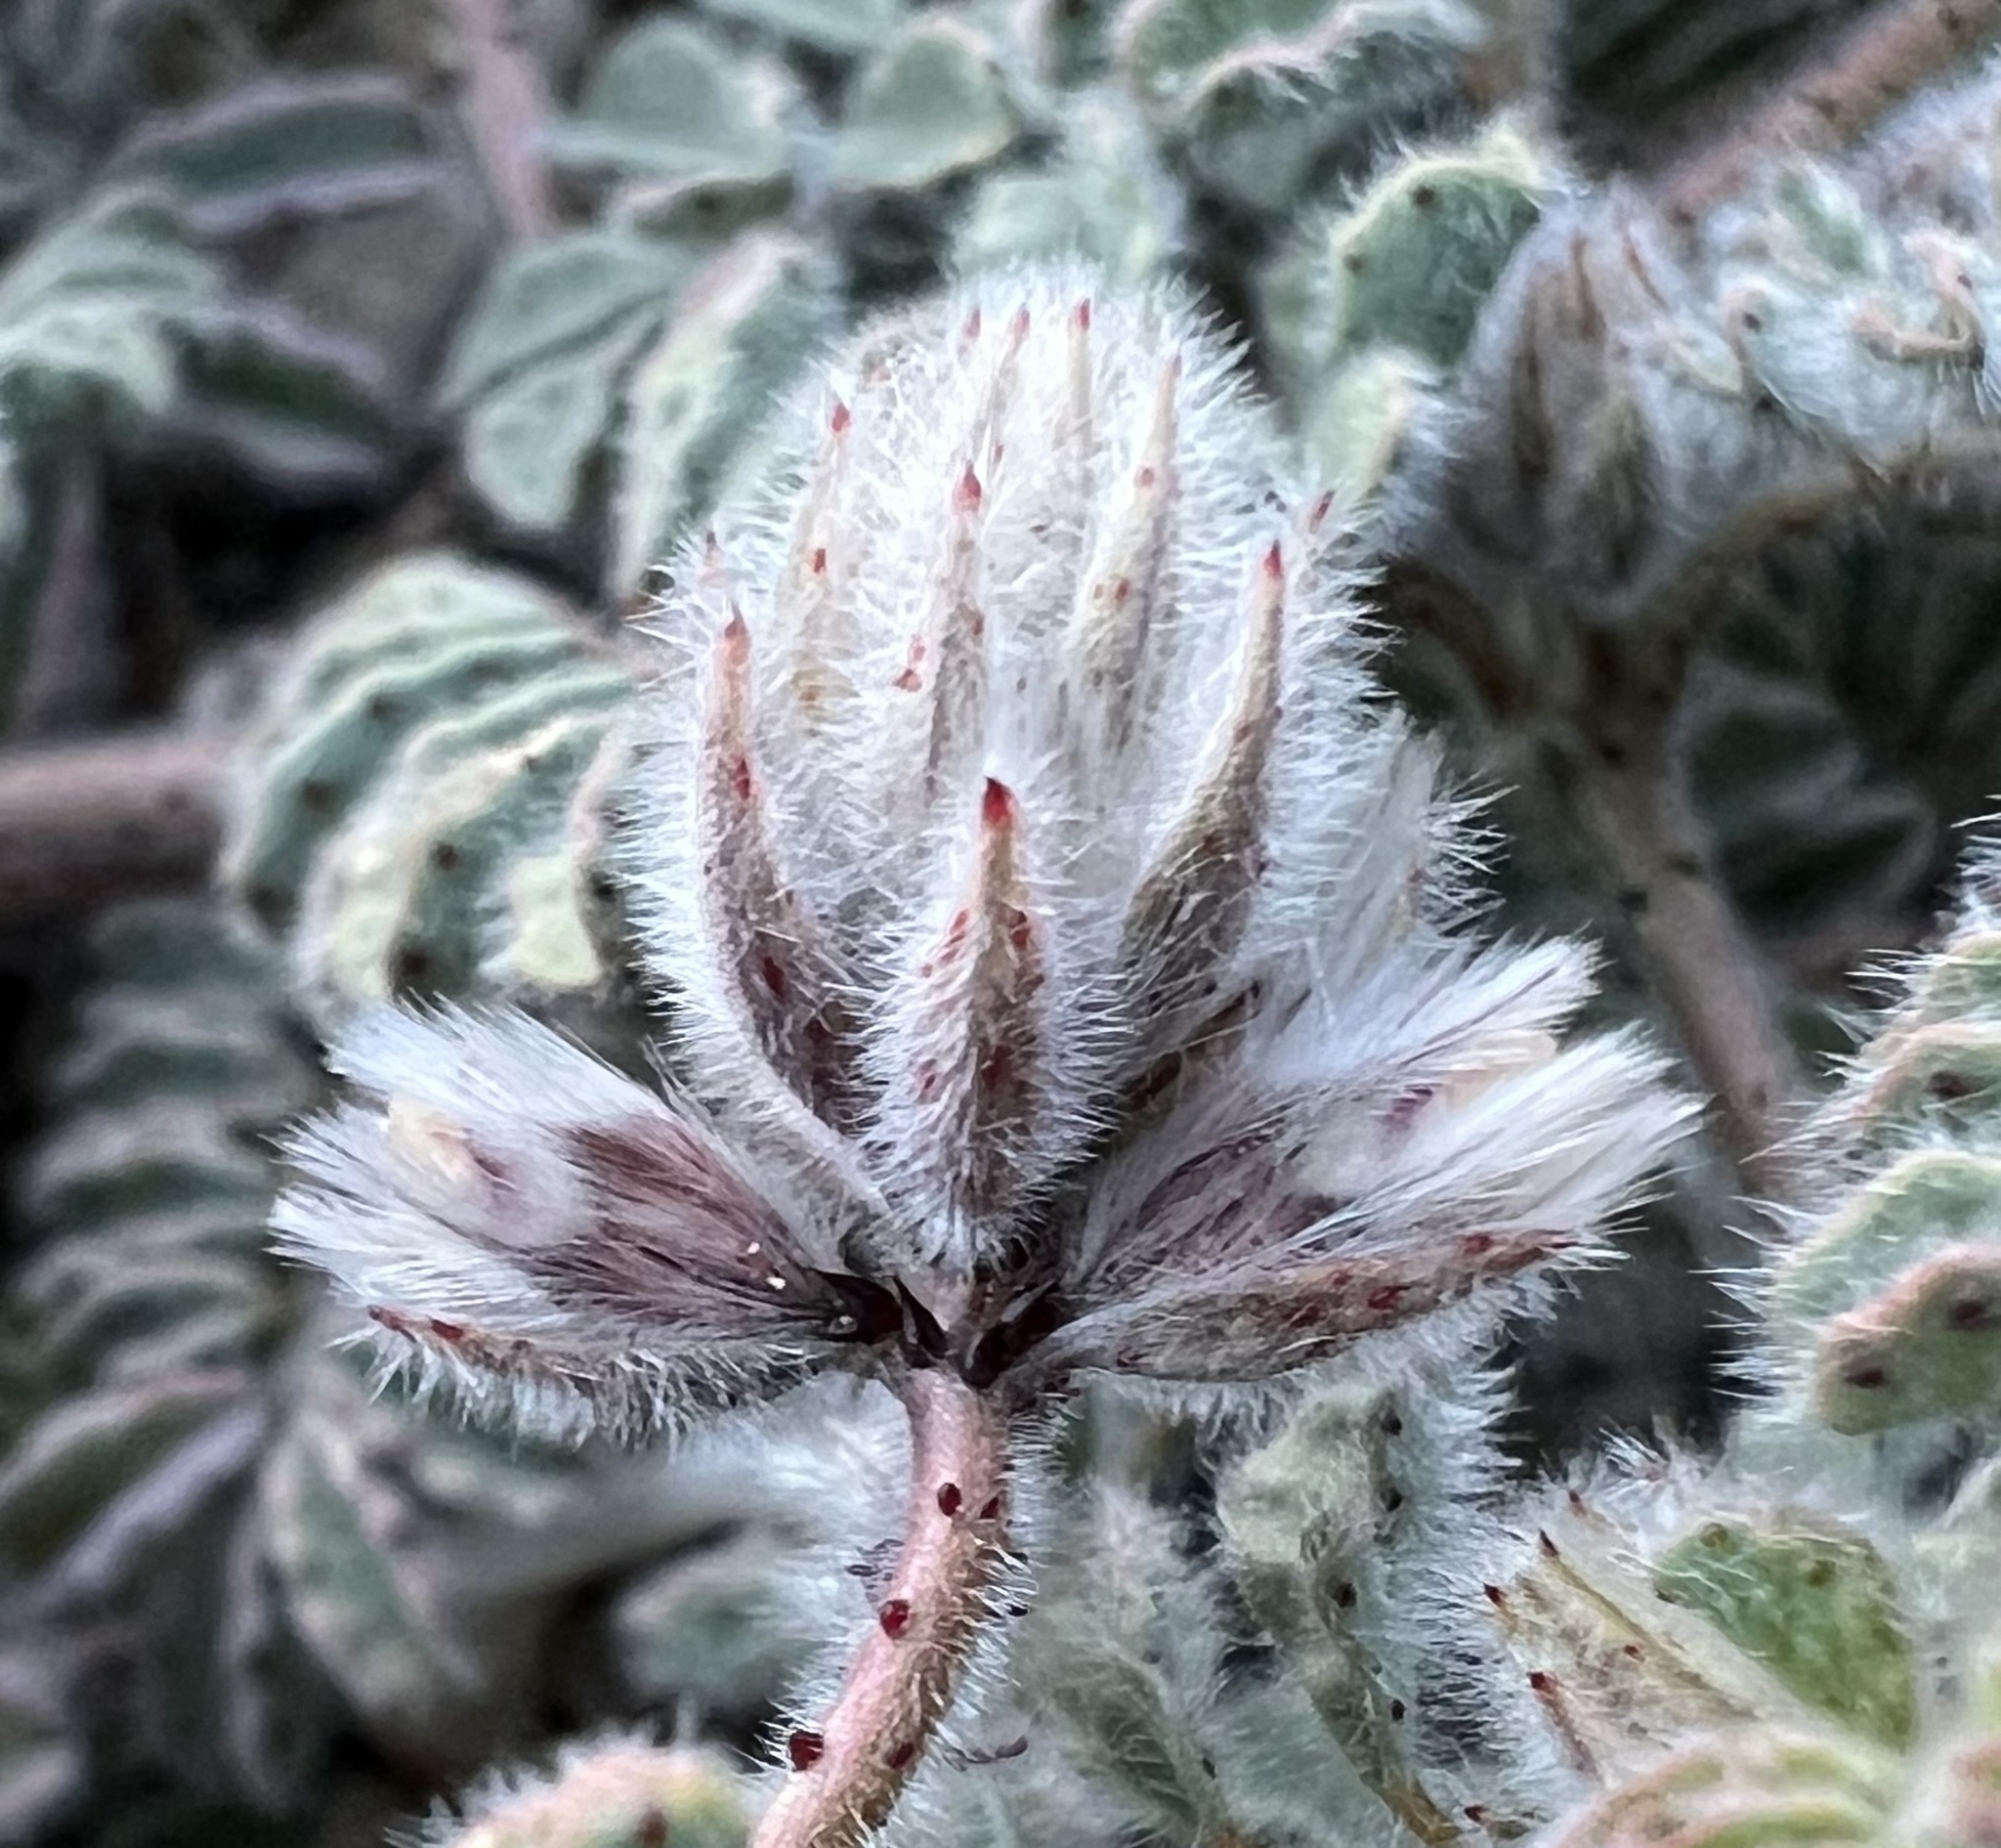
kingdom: Plantae
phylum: Tracheophyta
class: Magnoliopsida
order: Fabales
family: Fabaceae
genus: Dalea
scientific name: Dalea mollissima
